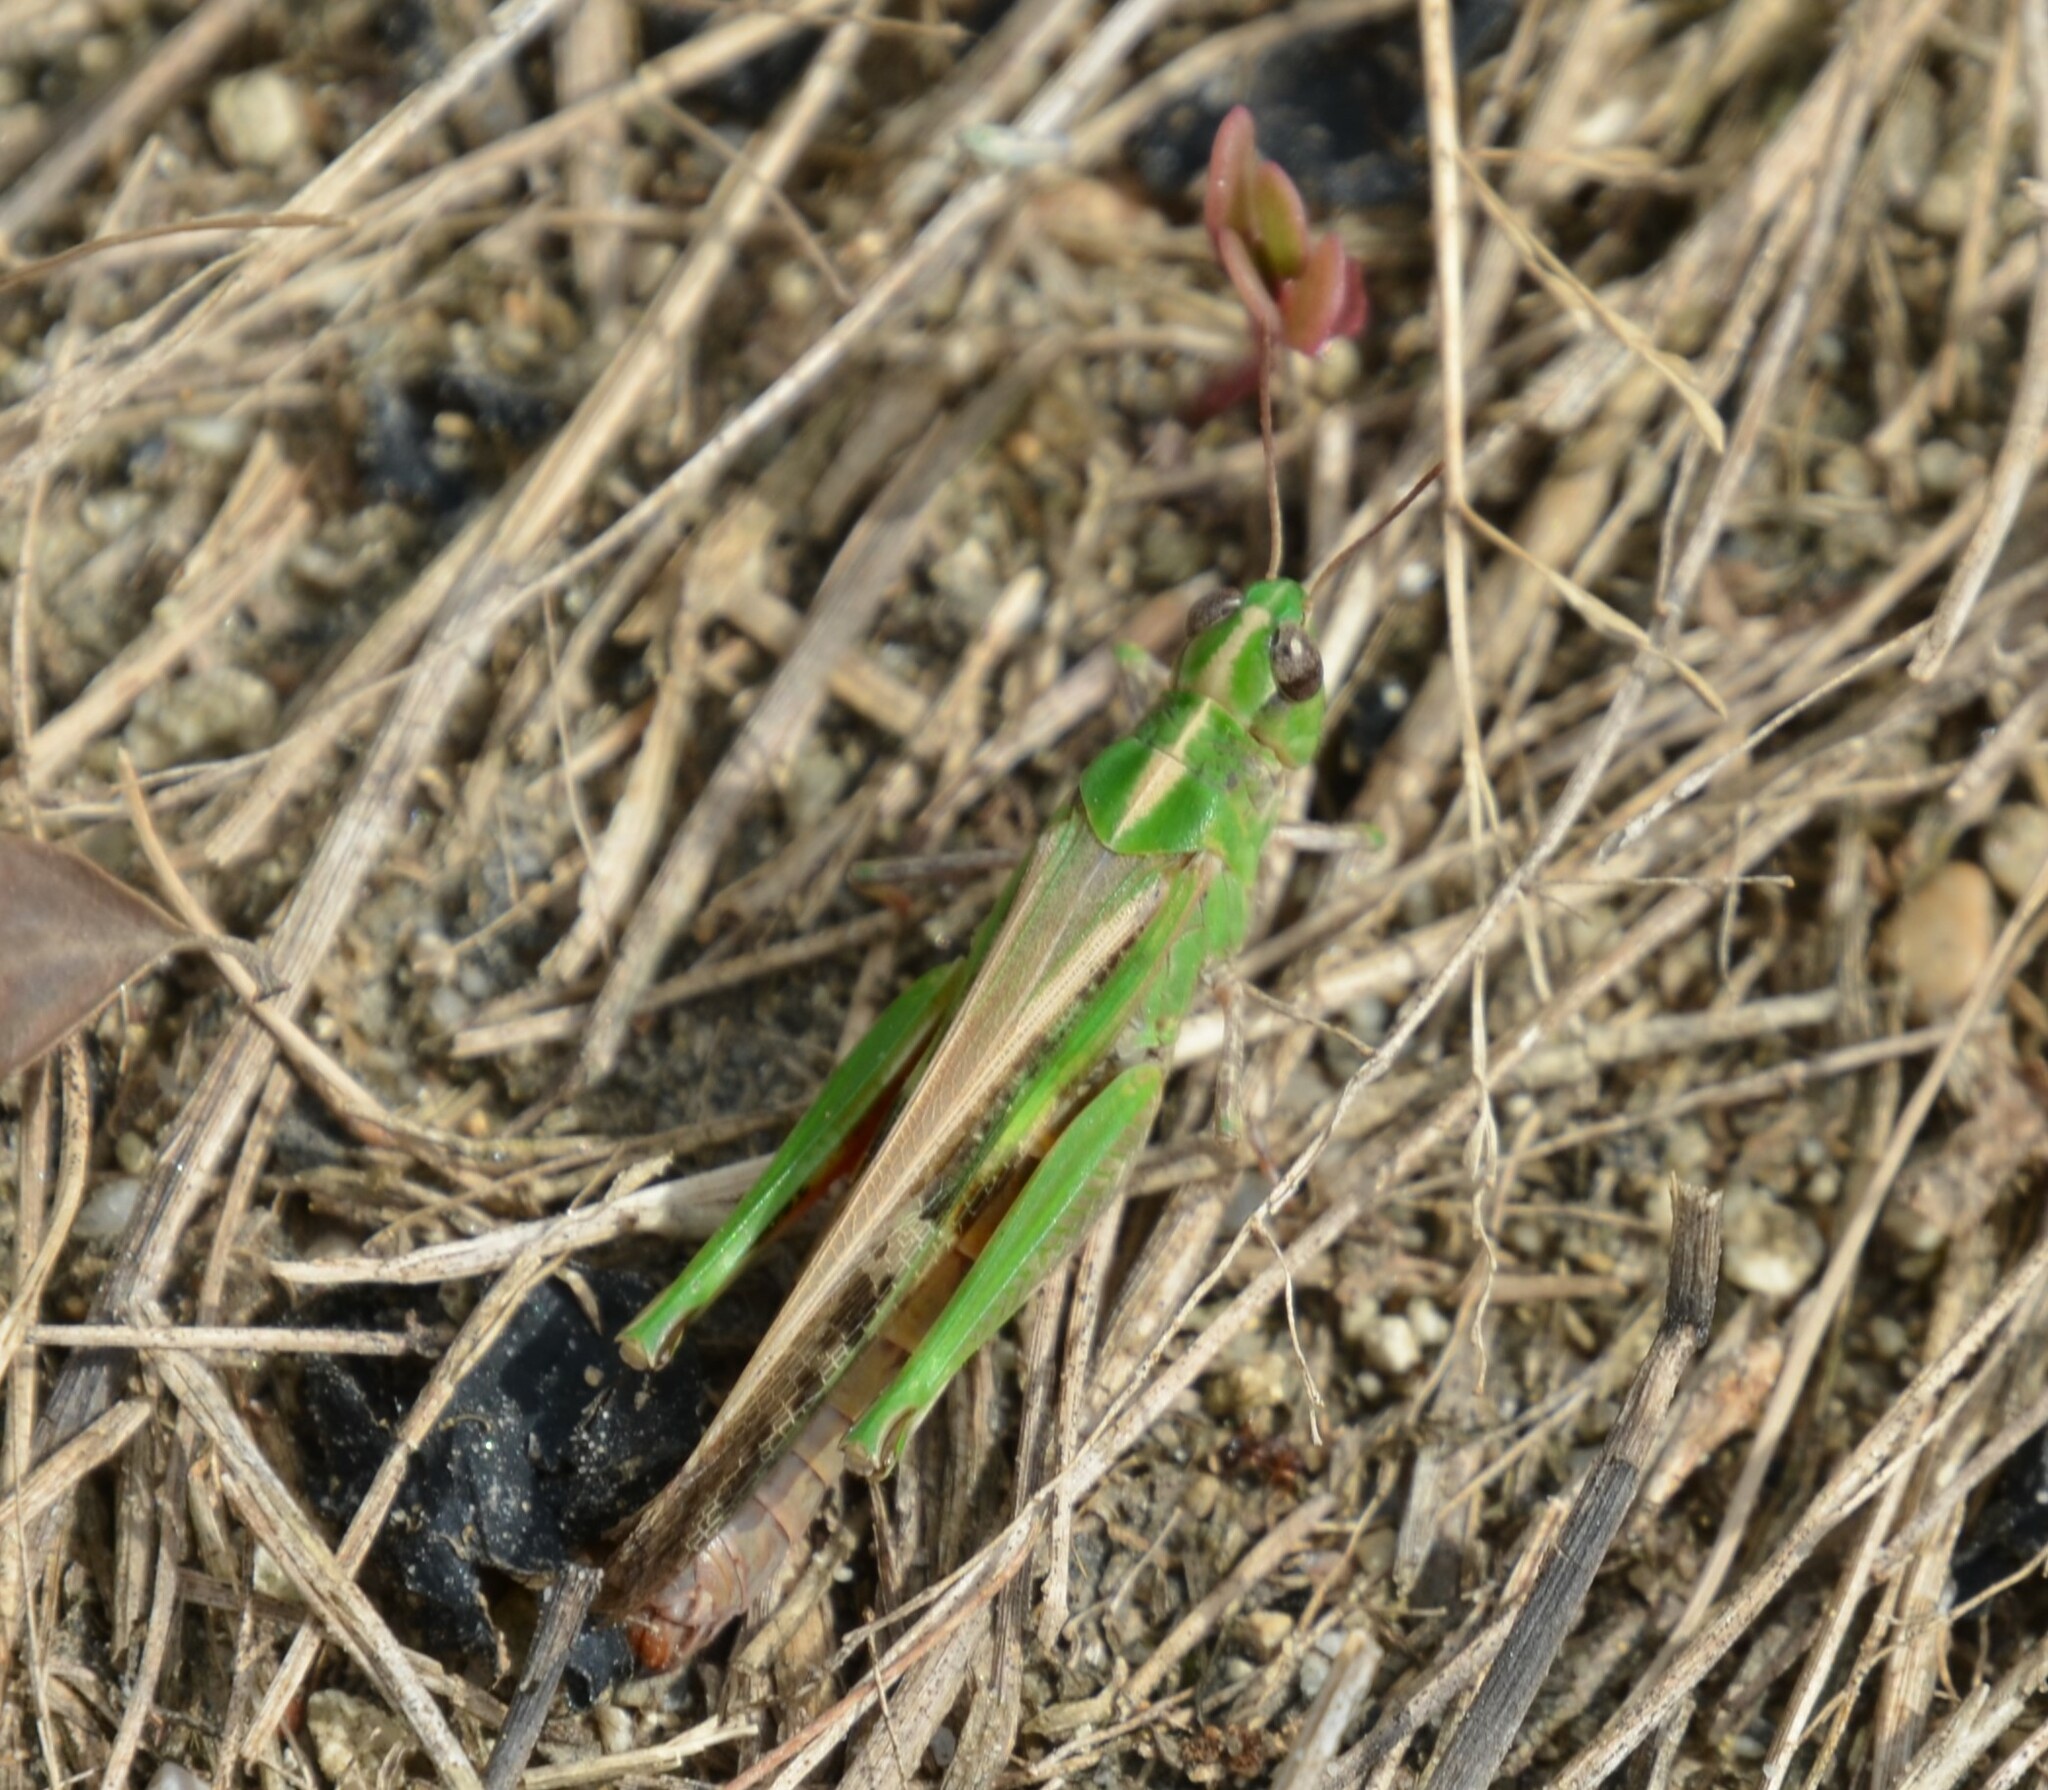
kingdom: Animalia
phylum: Arthropoda
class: Insecta
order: Orthoptera
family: Acrididae
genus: Aiolopus
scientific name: Aiolopus thalassinus
